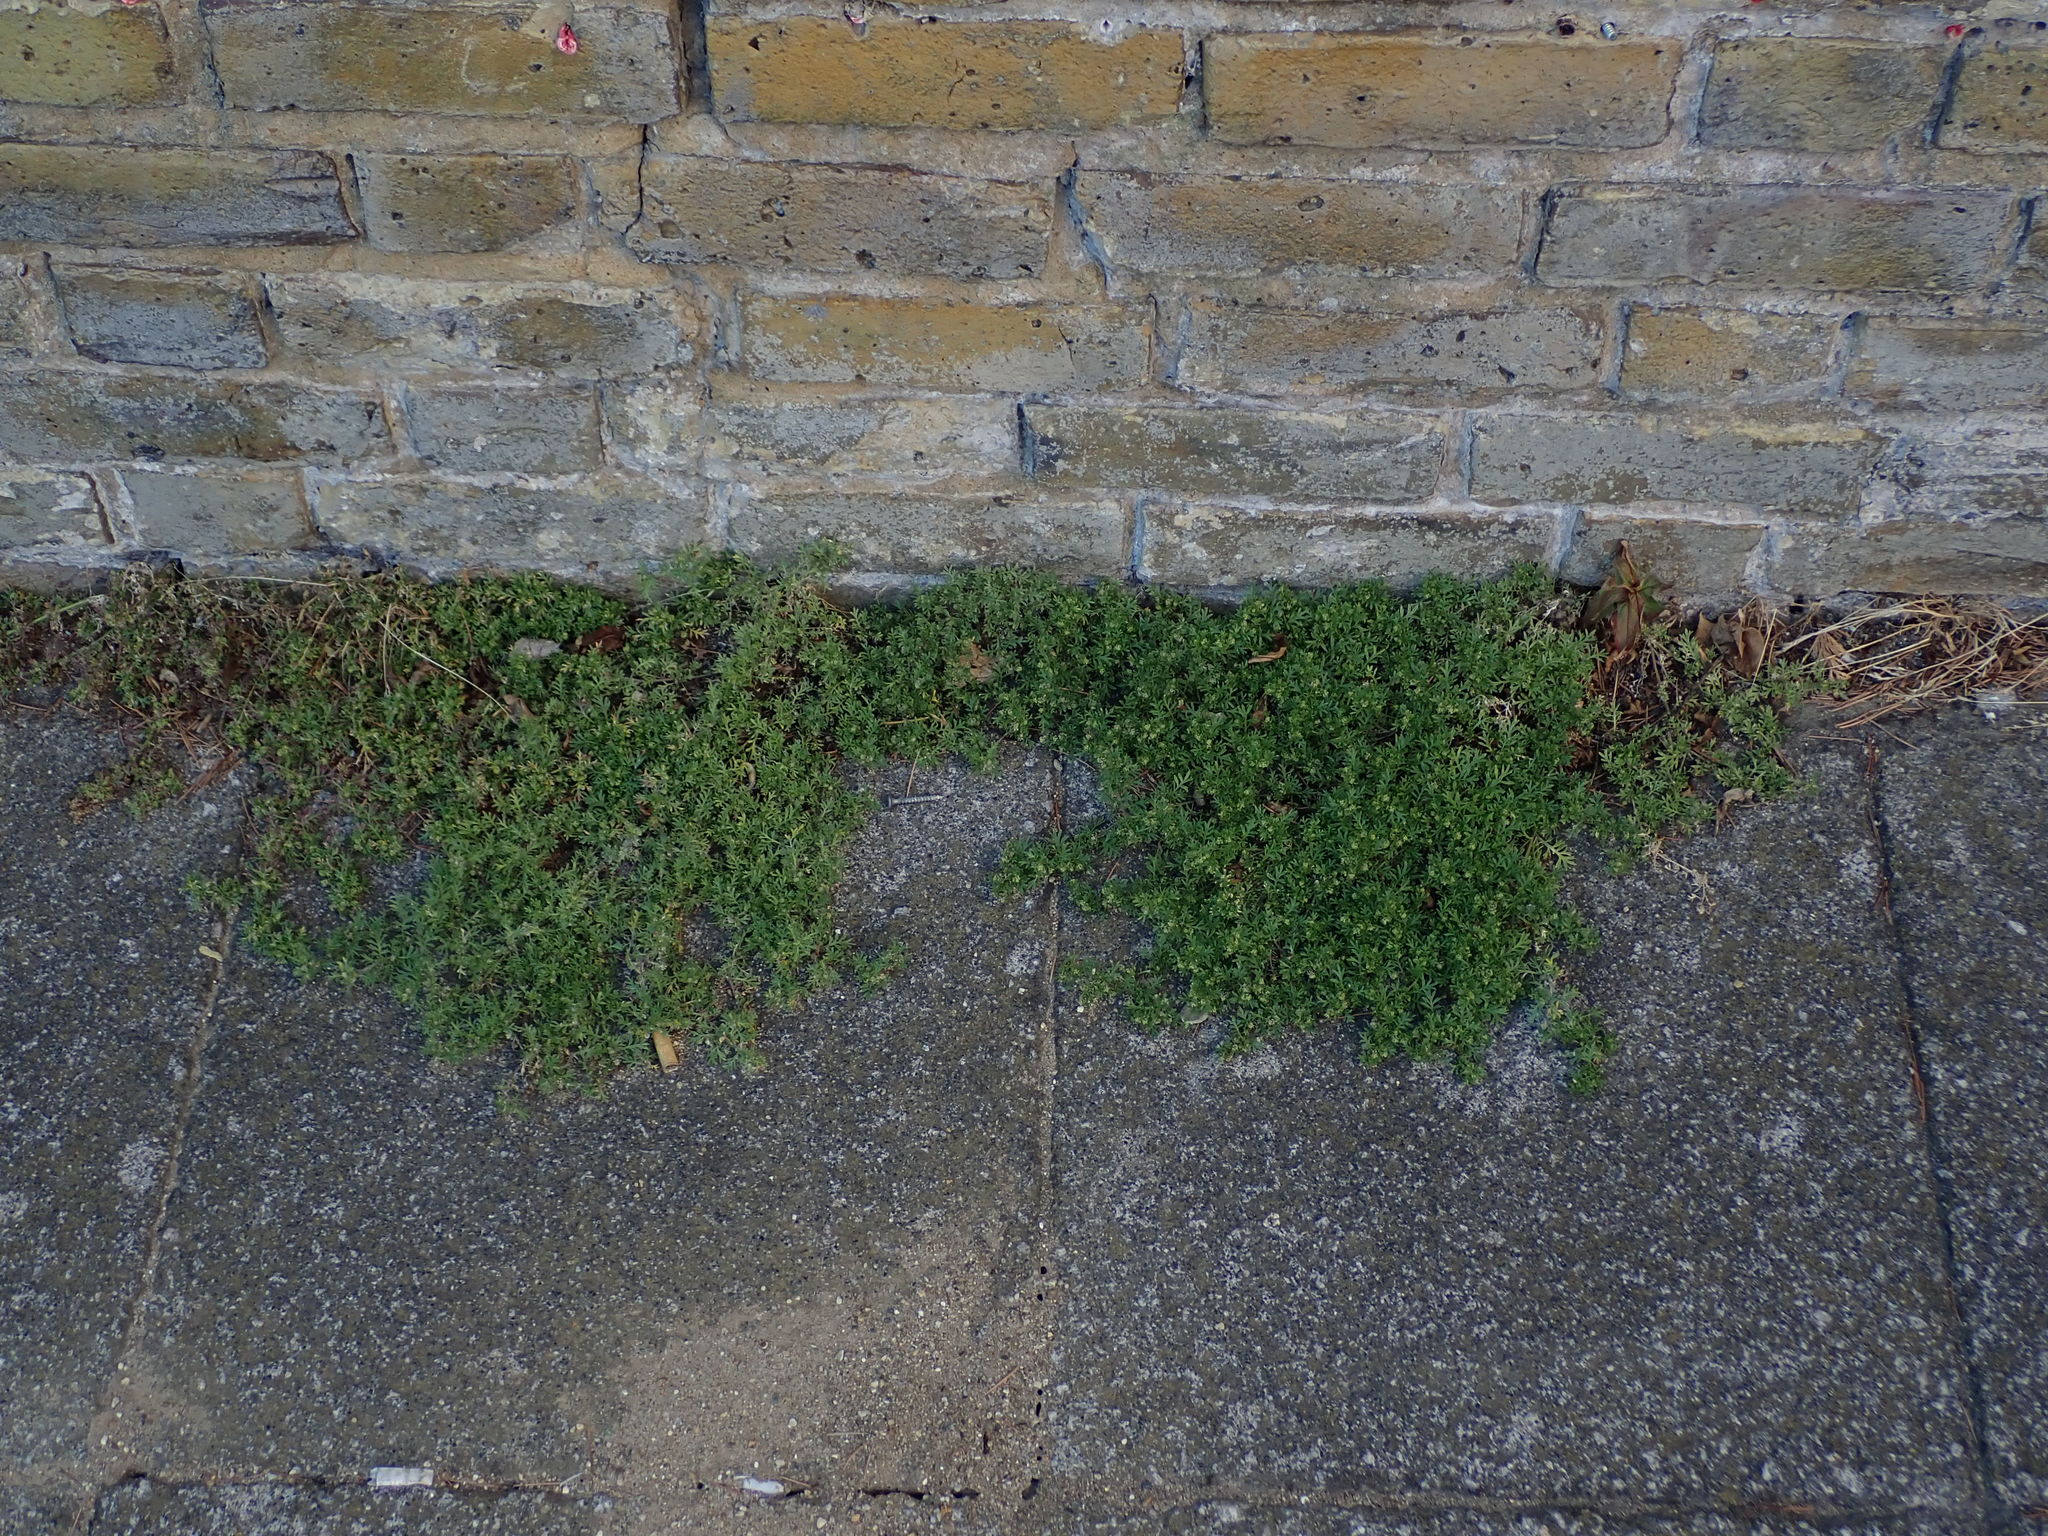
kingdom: Plantae
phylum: Tracheophyta
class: Magnoliopsida
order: Brassicales
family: Brassicaceae
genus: Lepidium
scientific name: Lepidium didymum
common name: Lesser swinecress
